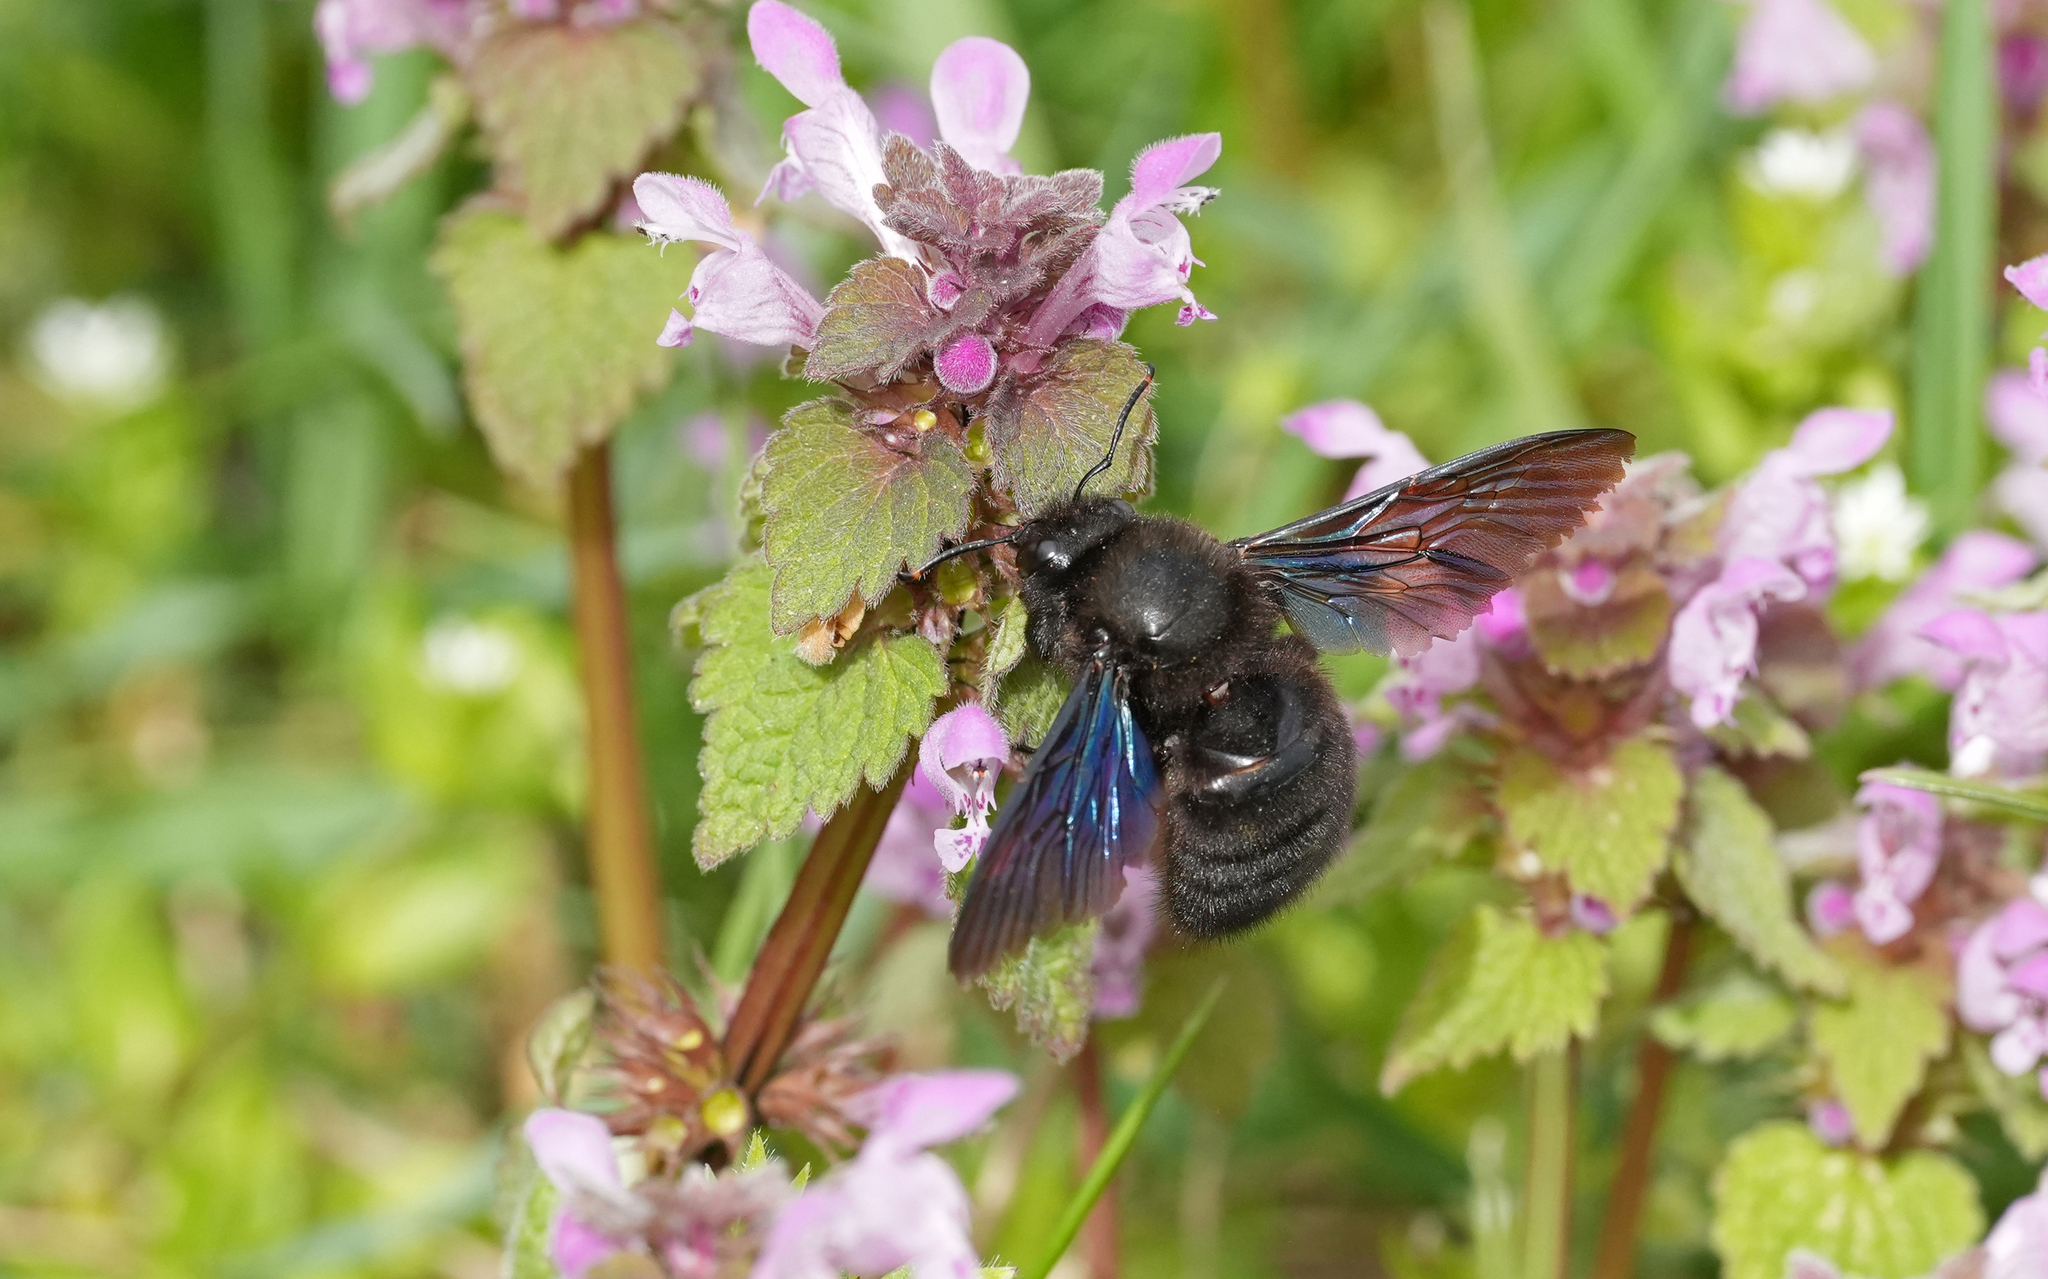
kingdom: Animalia
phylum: Arthropoda
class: Insecta
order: Hymenoptera
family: Apidae
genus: Xylocopa
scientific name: Xylocopa violacea
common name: Violet carpenter bee
